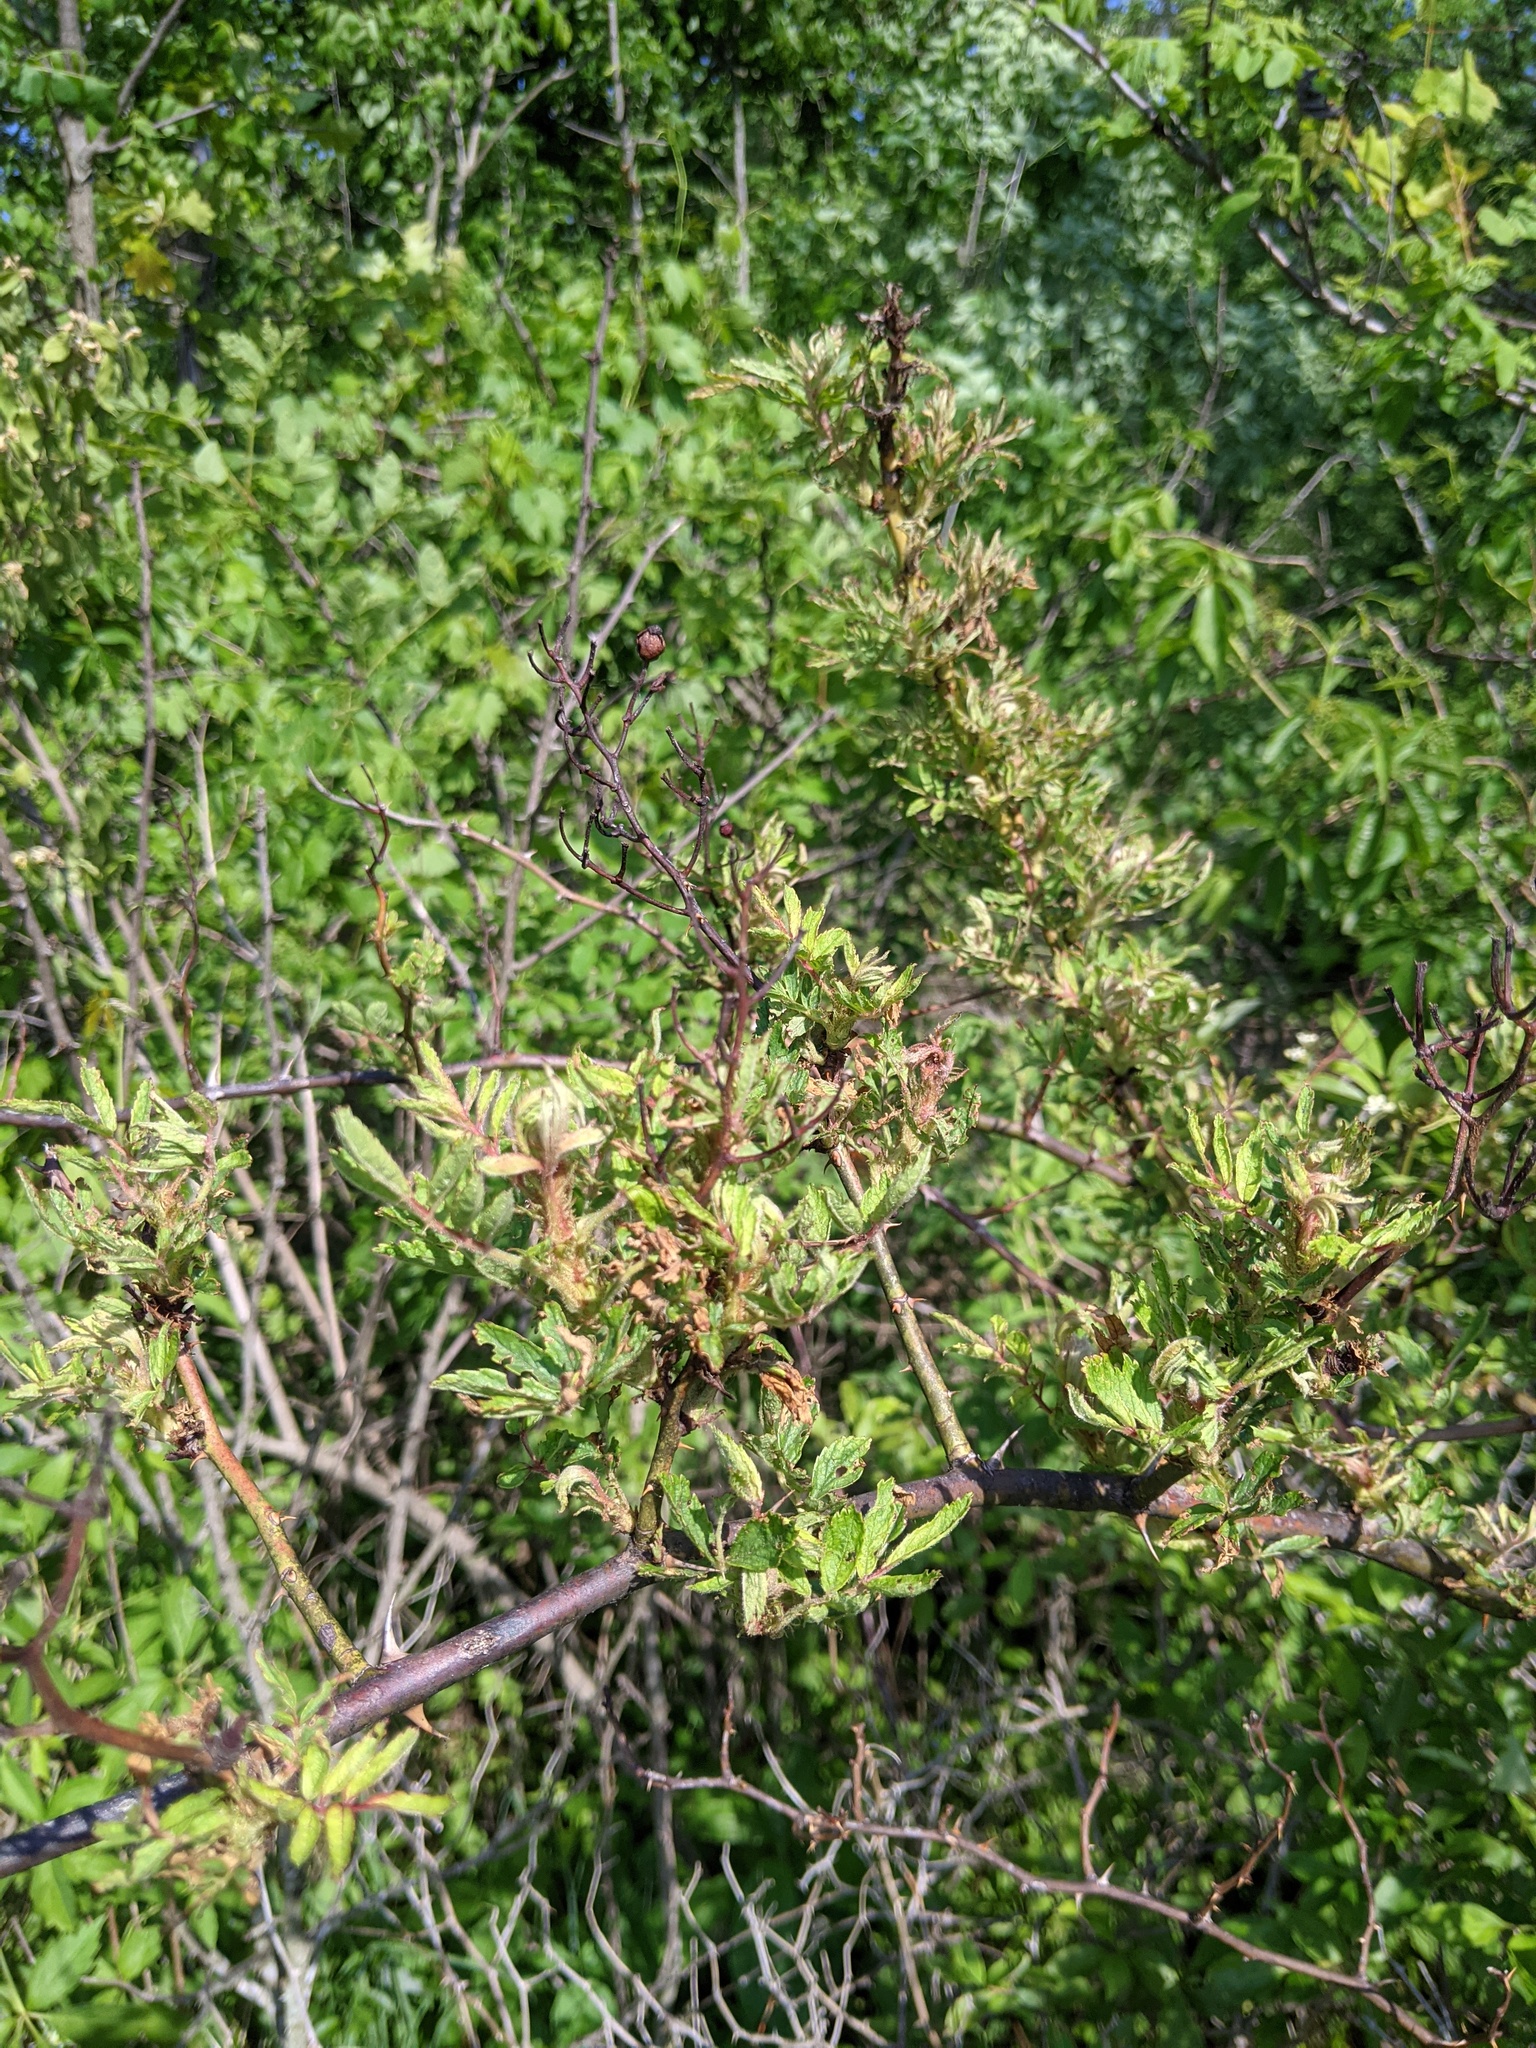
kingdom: Viruses
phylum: Negarnaviricota
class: Ellioviricetes
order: Bunyavirales
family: Fimoviridae
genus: Emaravirus
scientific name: Emaravirus rosae
